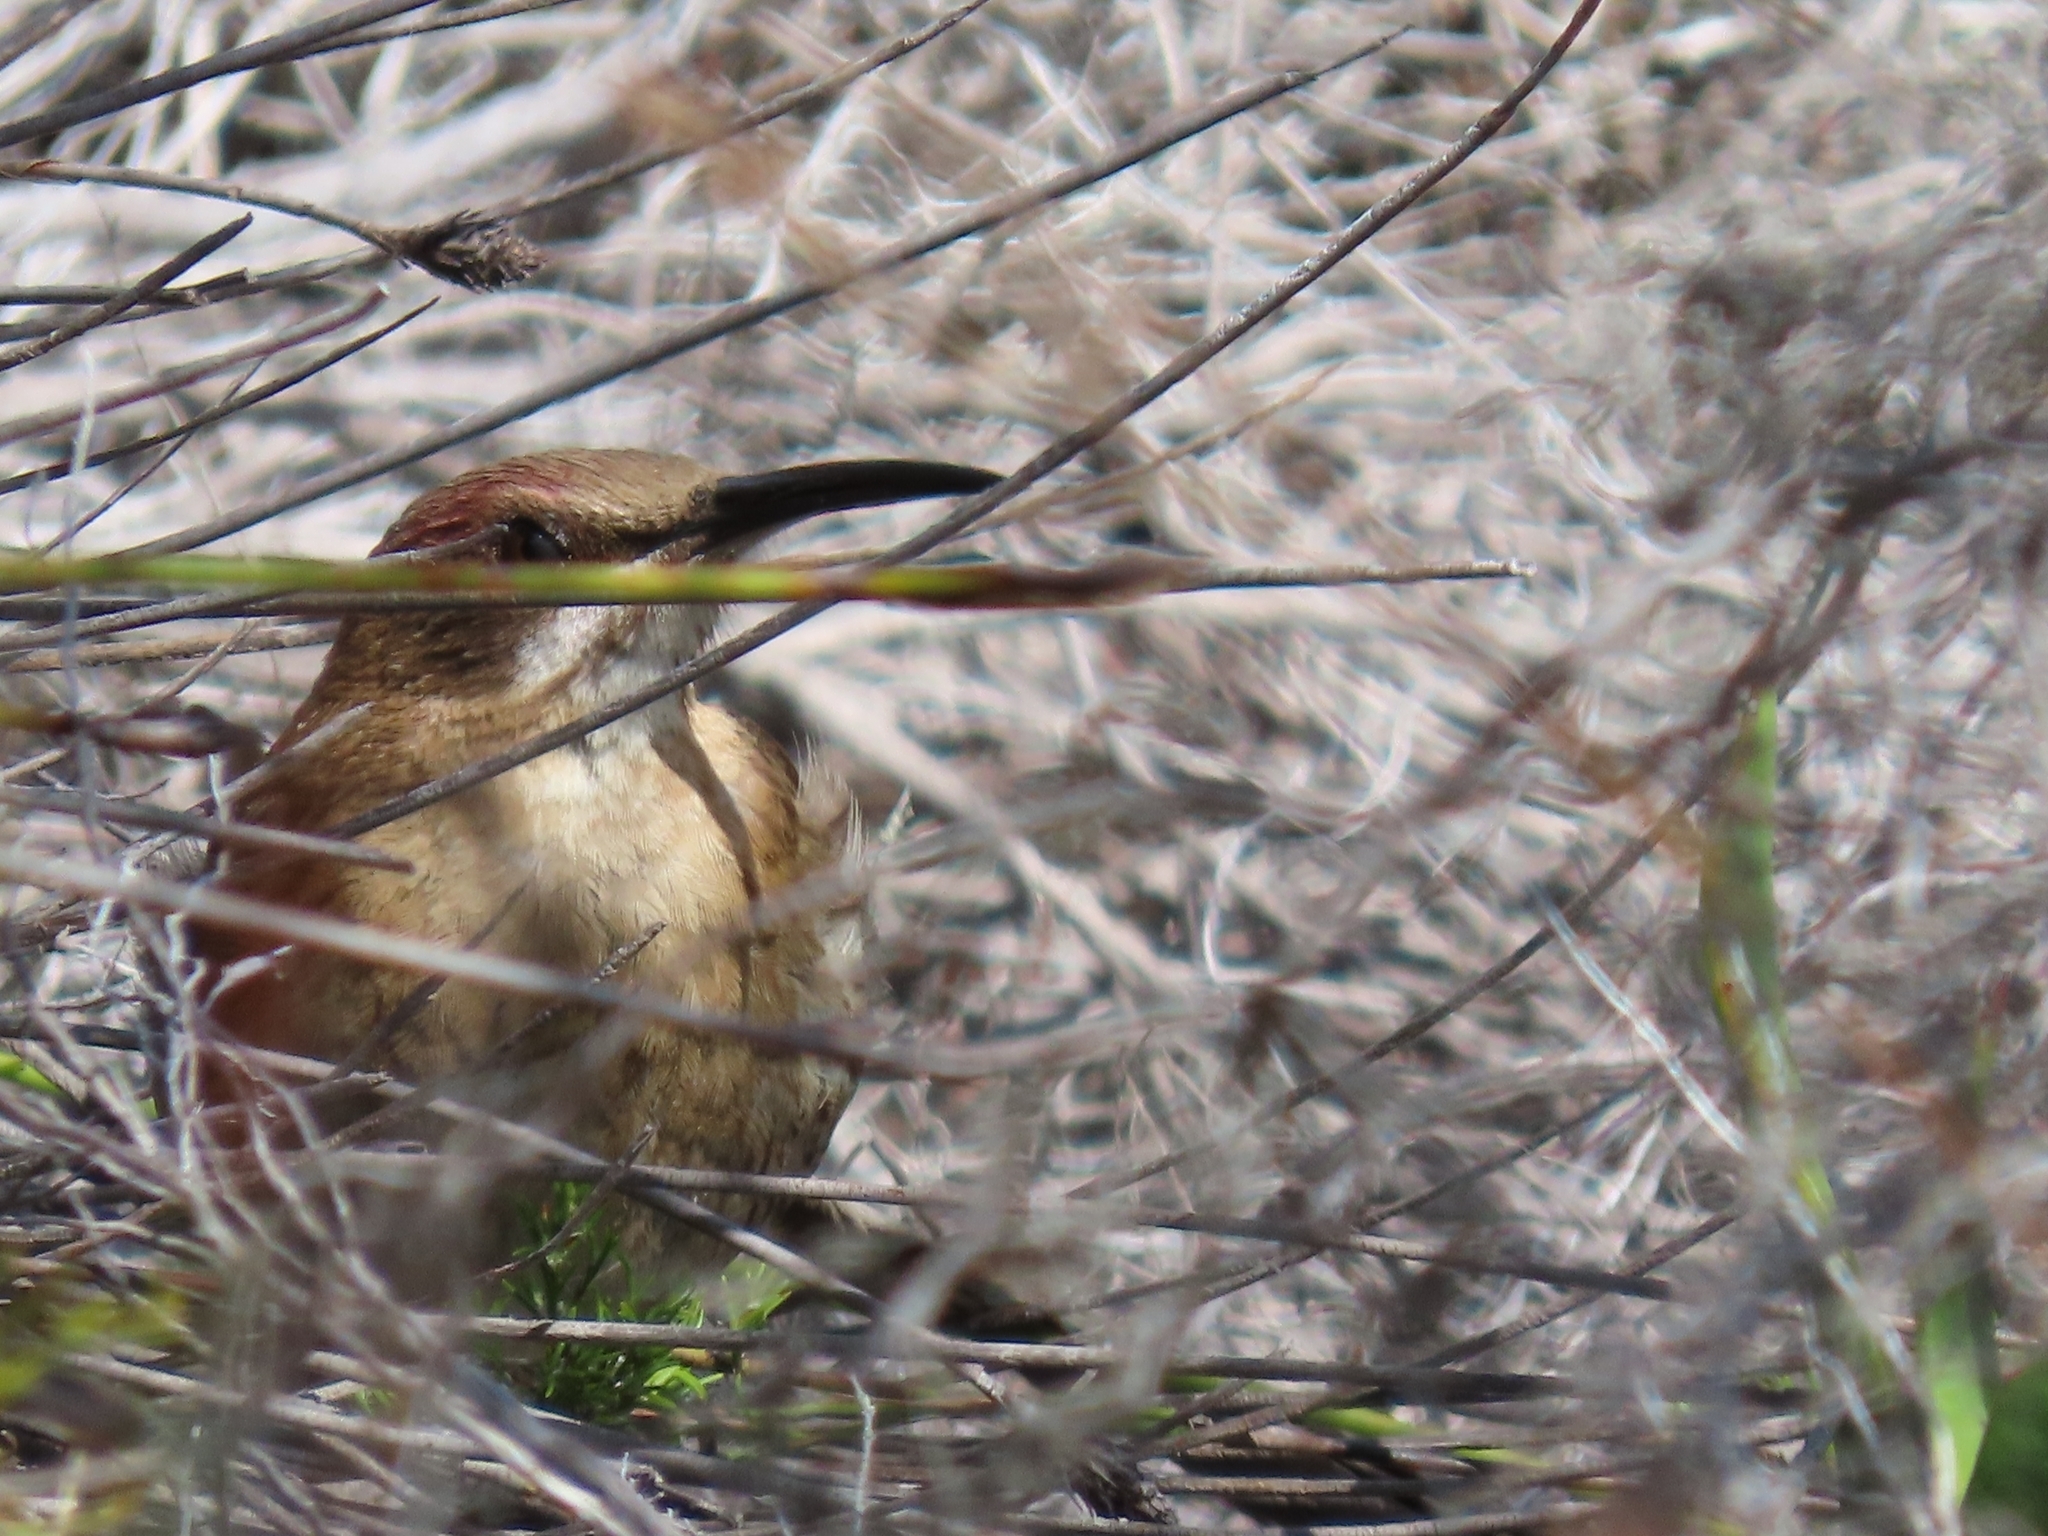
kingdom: Animalia
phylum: Chordata
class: Aves
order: Passeriformes
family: Promeropidae
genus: Promerops
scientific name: Promerops cafer
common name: Cape sugarbird
